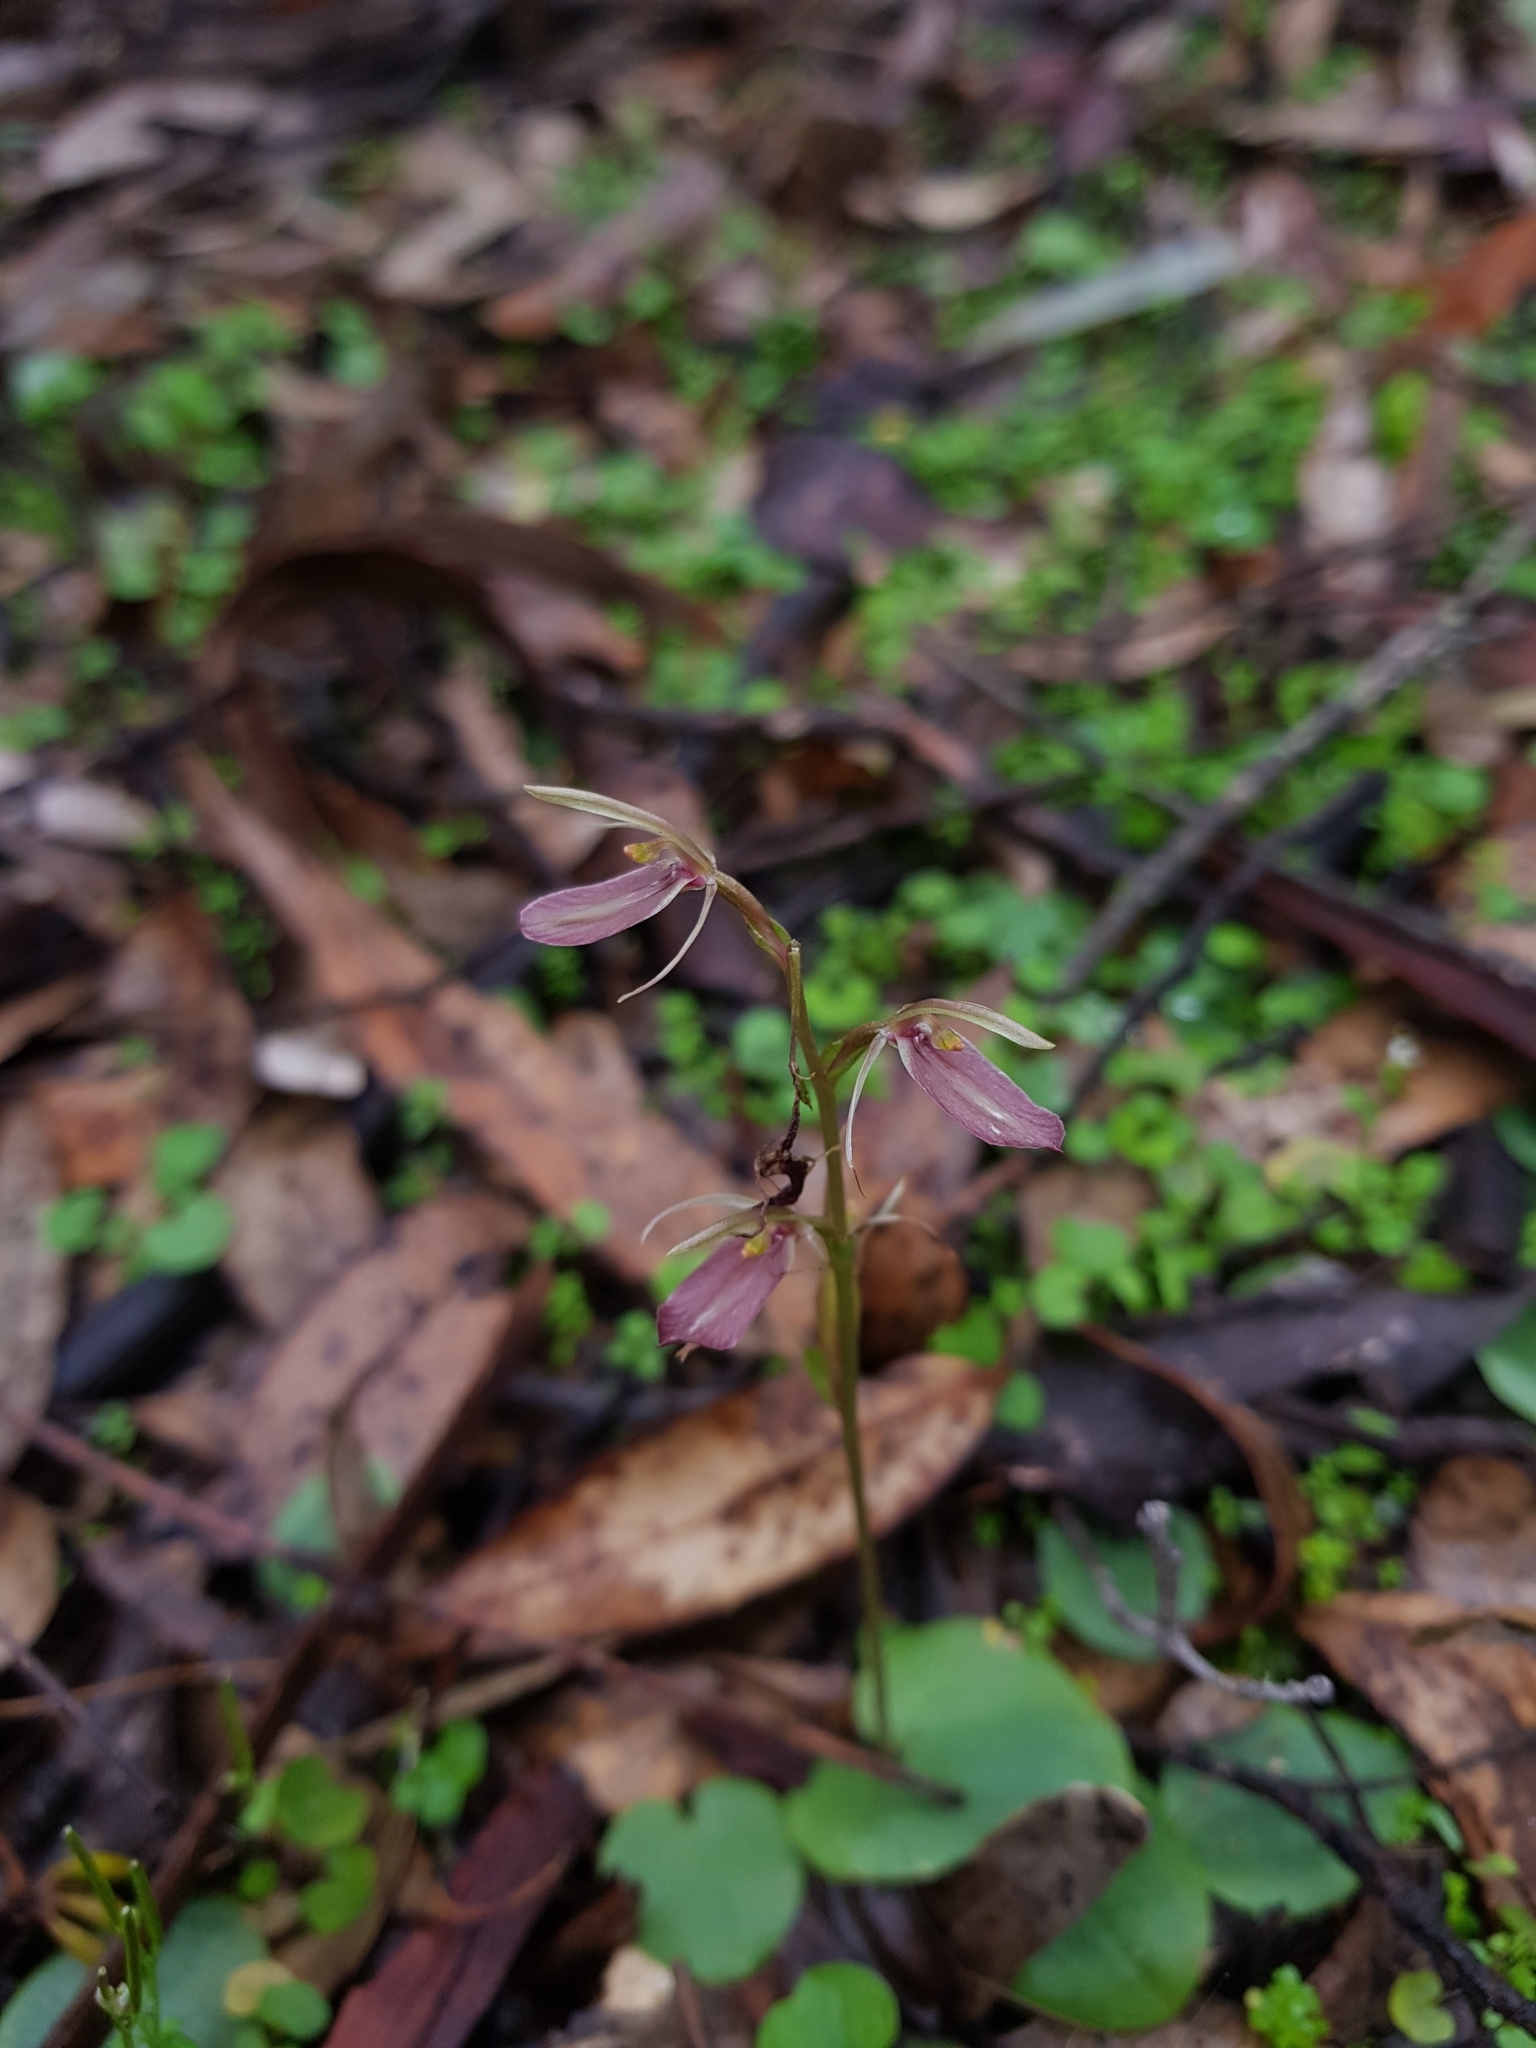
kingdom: Plantae
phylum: Tracheophyta
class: Liliopsida
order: Asparagales
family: Orchidaceae
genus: Cyrtostylis
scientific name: Cyrtostylis robusta
